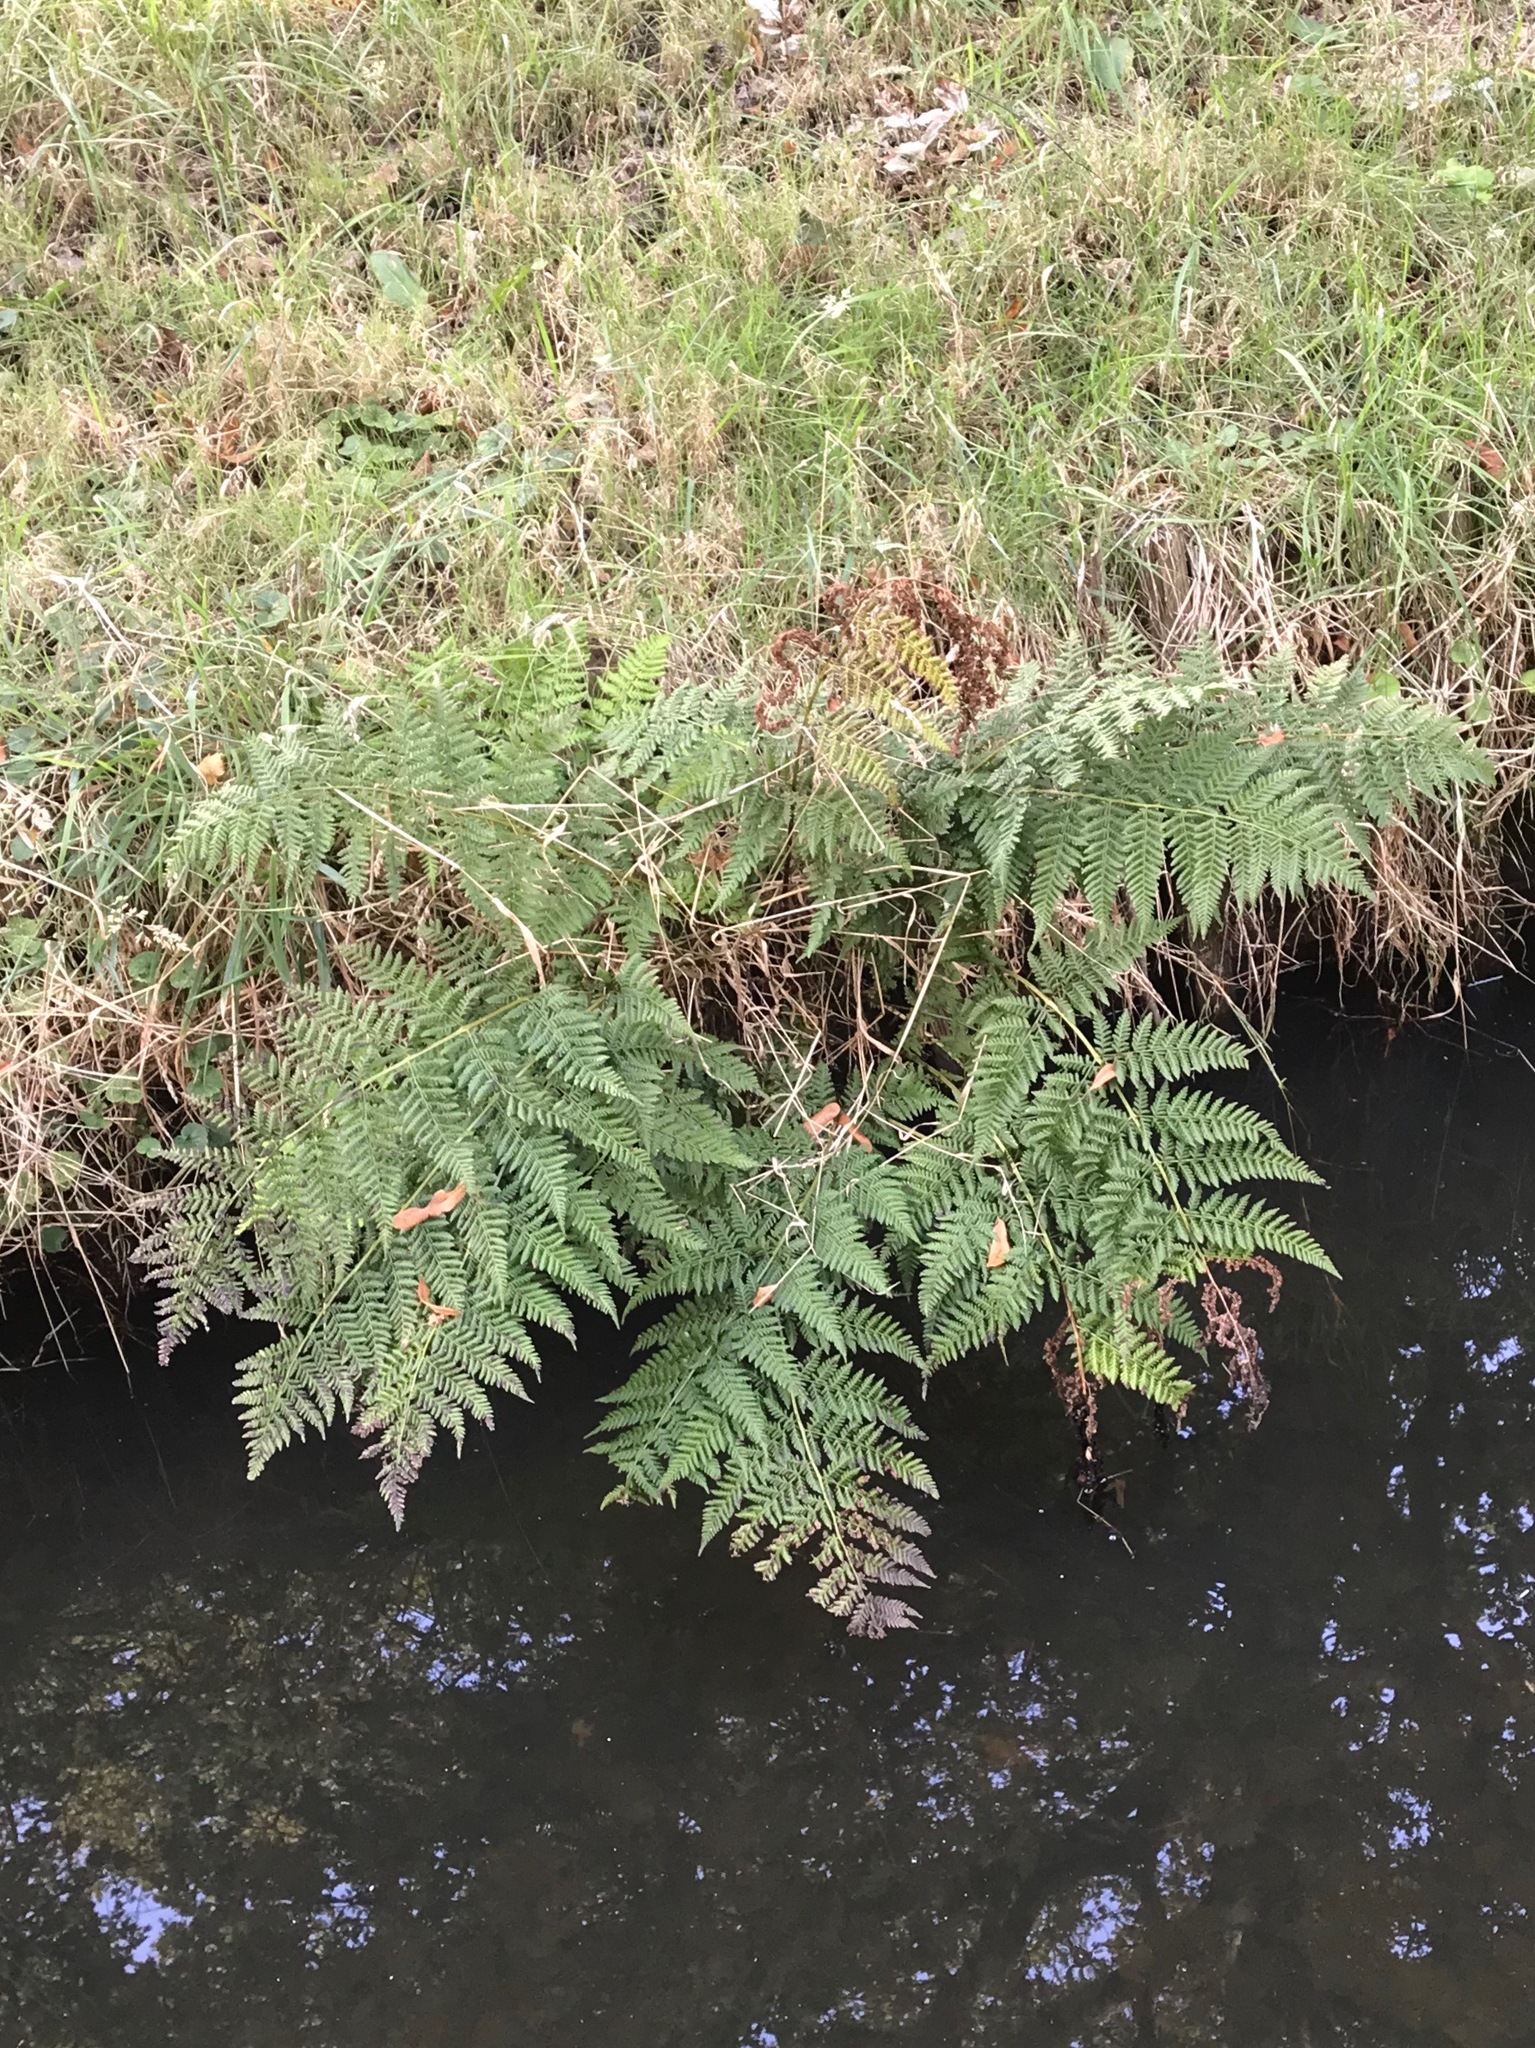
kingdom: Plantae
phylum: Tracheophyta
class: Polypodiopsida
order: Polypodiales
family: Dryopteridaceae
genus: Dryopteris
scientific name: Dryopteris dilatata
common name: Broad buckler-fern
